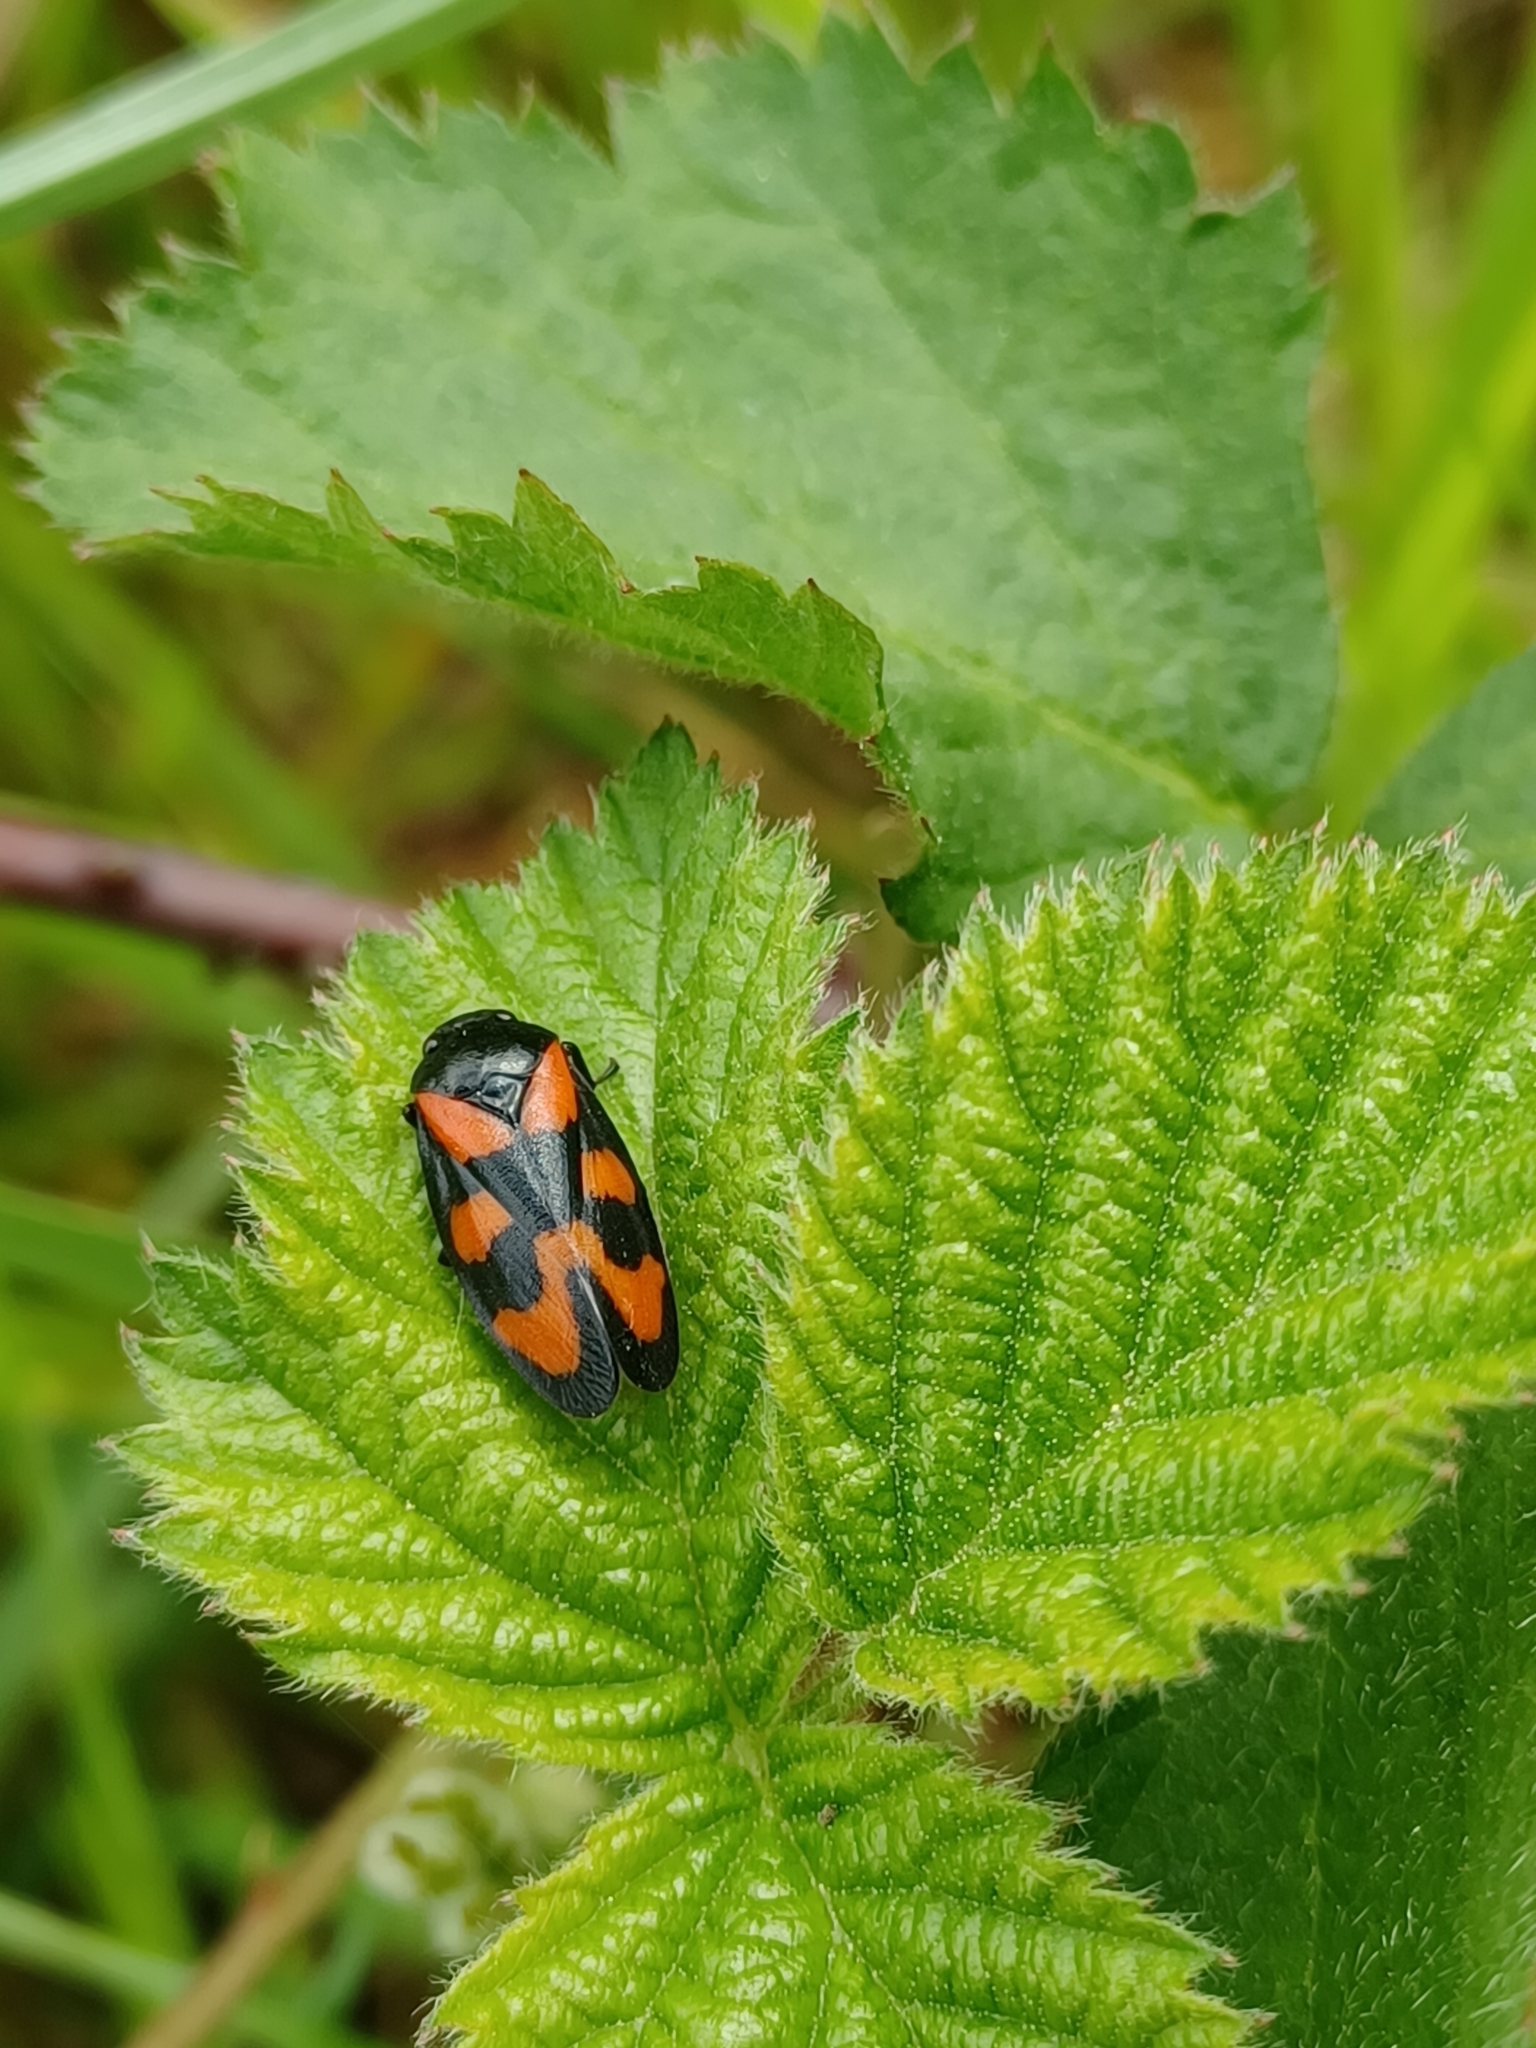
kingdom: Animalia
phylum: Arthropoda
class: Insecta
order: Hemiptera
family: Cercopidae
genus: Cercopis
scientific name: Cercopis vulnerata
